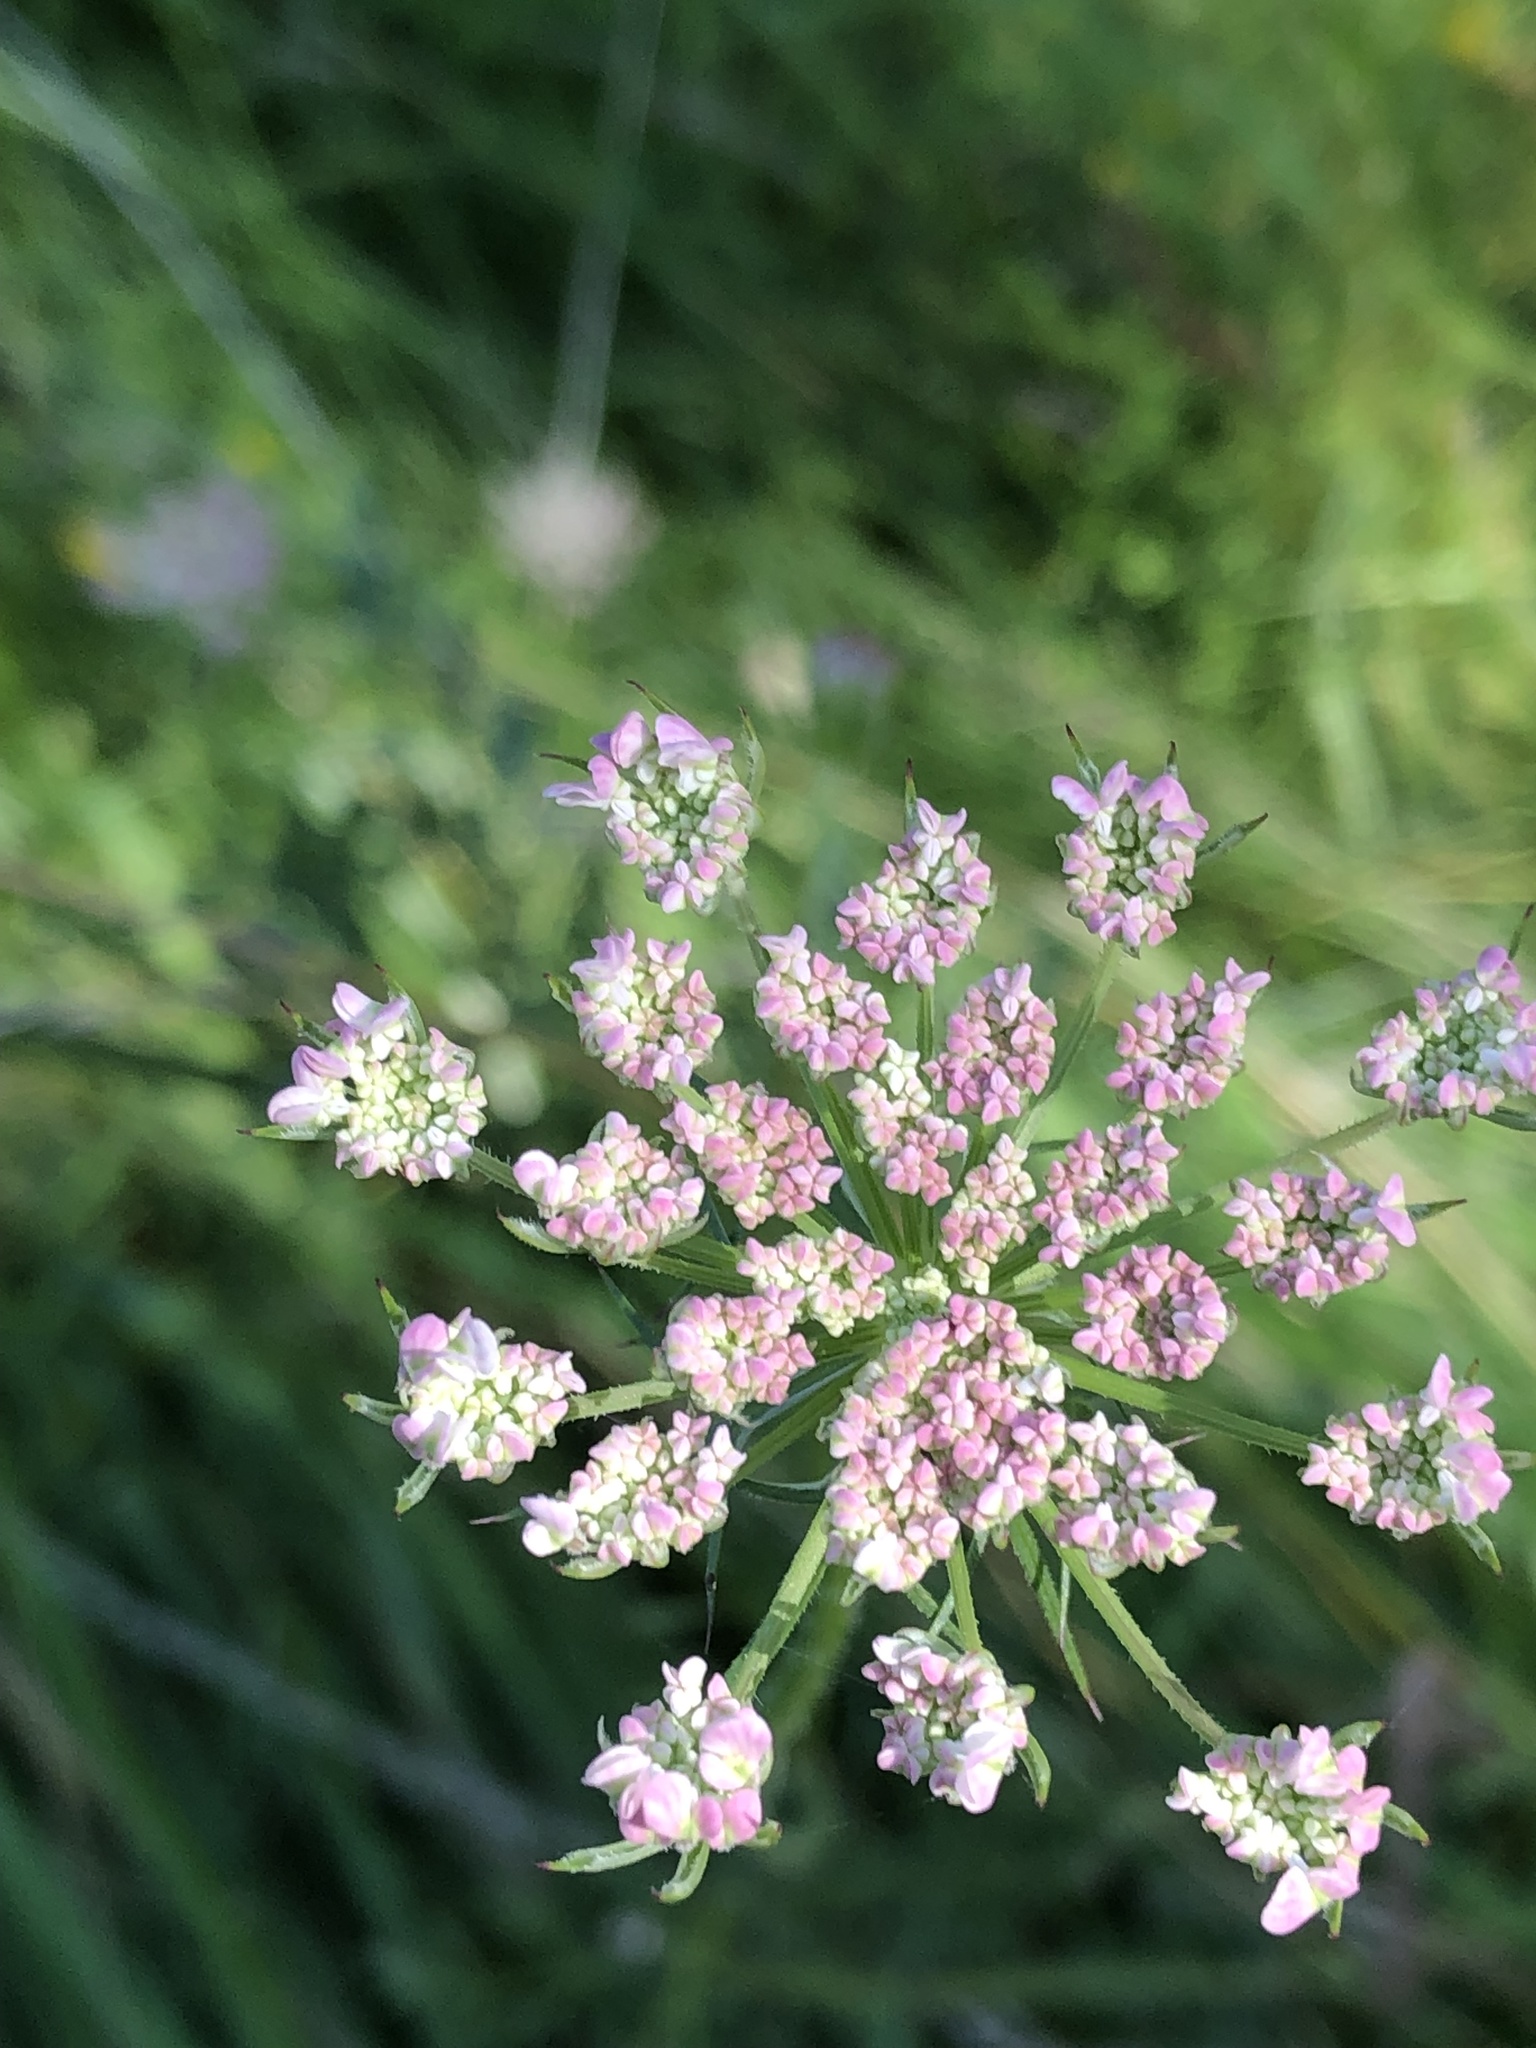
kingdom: Plantae
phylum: Tracheophyta
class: Magnoliopsida
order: Apiales
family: Apiaceae
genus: Daucus
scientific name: Daucus carota
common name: Wild carrot
